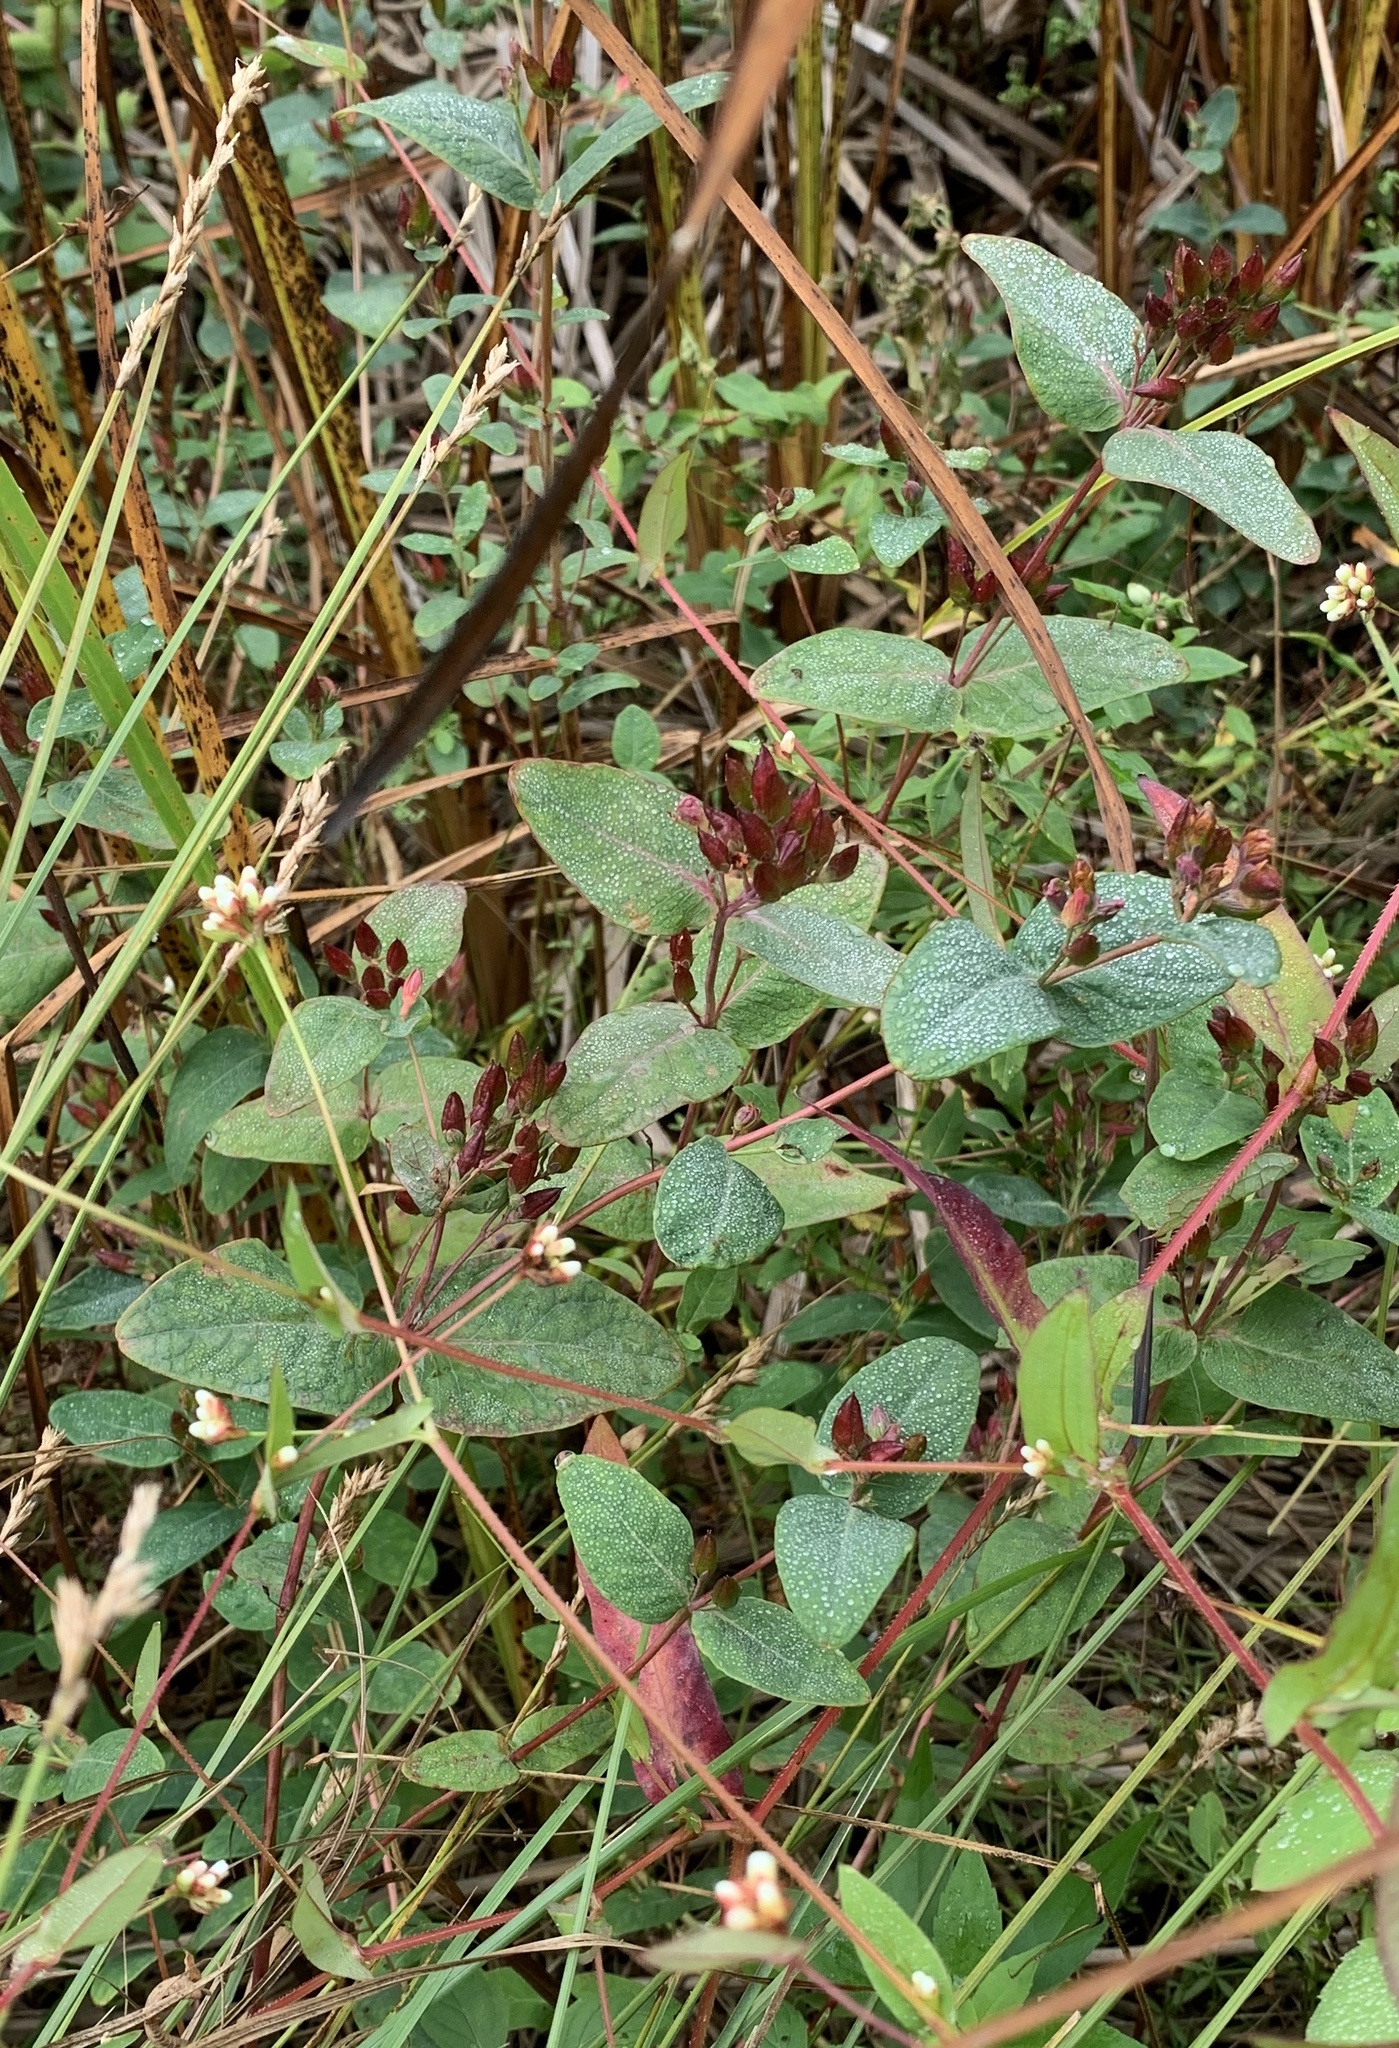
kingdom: Plantae
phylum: Tracheophyta
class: Magnoliopsida
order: Malpighiales
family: Hypericaceae
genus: Triadenum
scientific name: Triadenum fraseri
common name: Fraser's marsh st. johnswort
